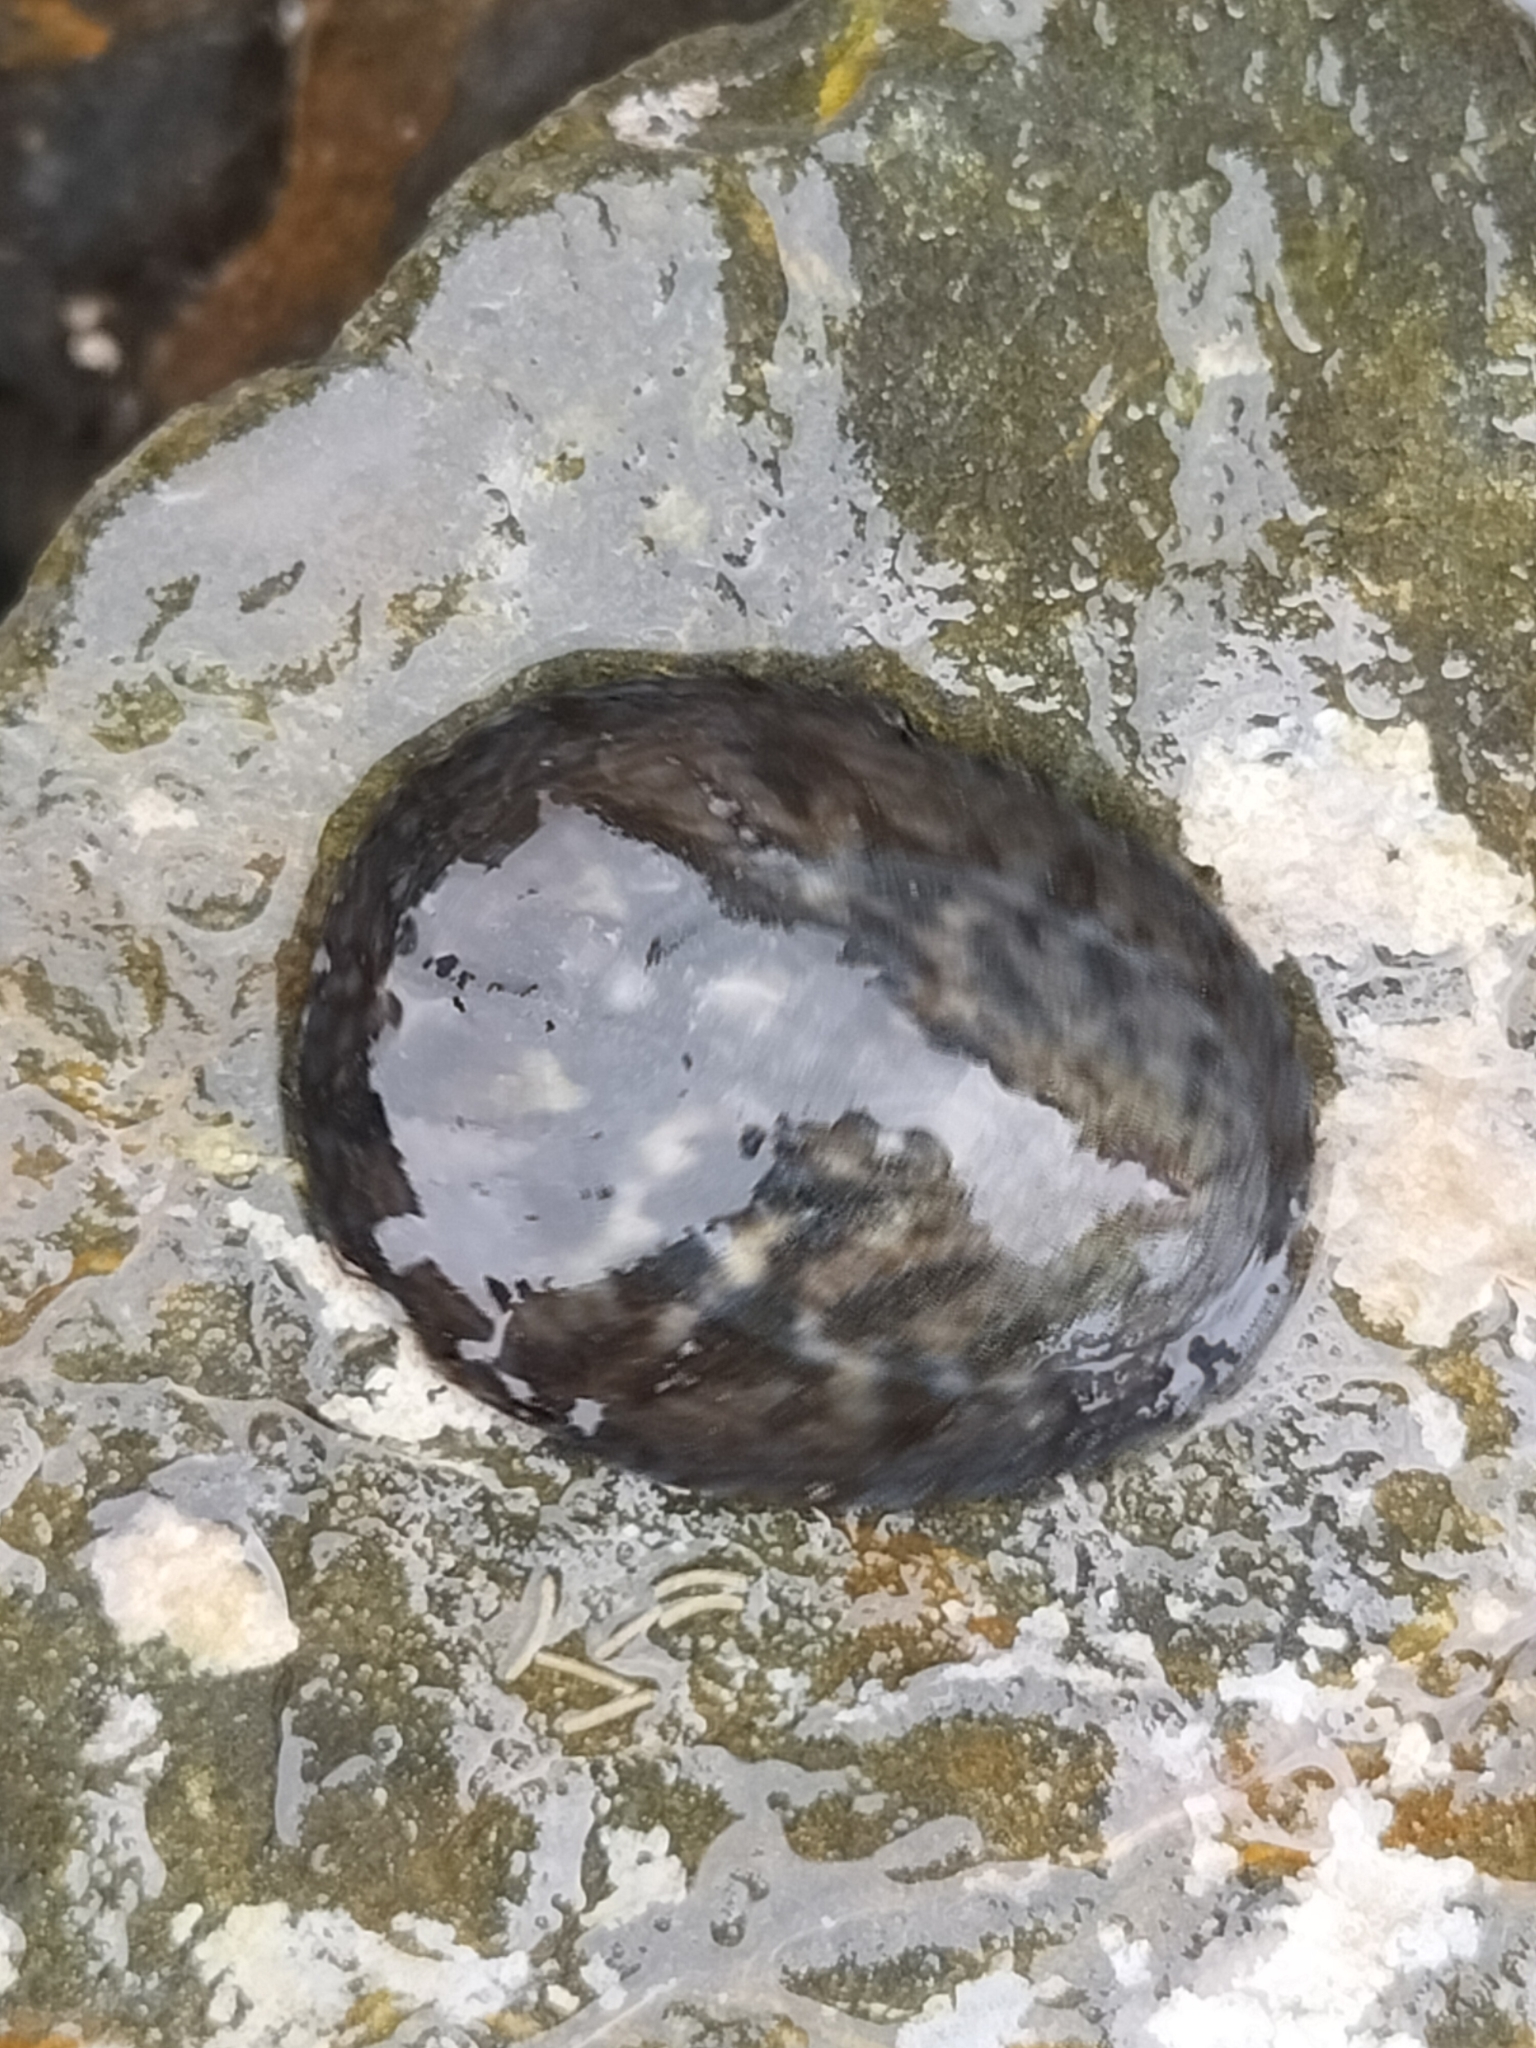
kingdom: Animalia
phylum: Mollusca
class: Gastropoda
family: Nacellidae
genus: Cellana
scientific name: Cellana radians
